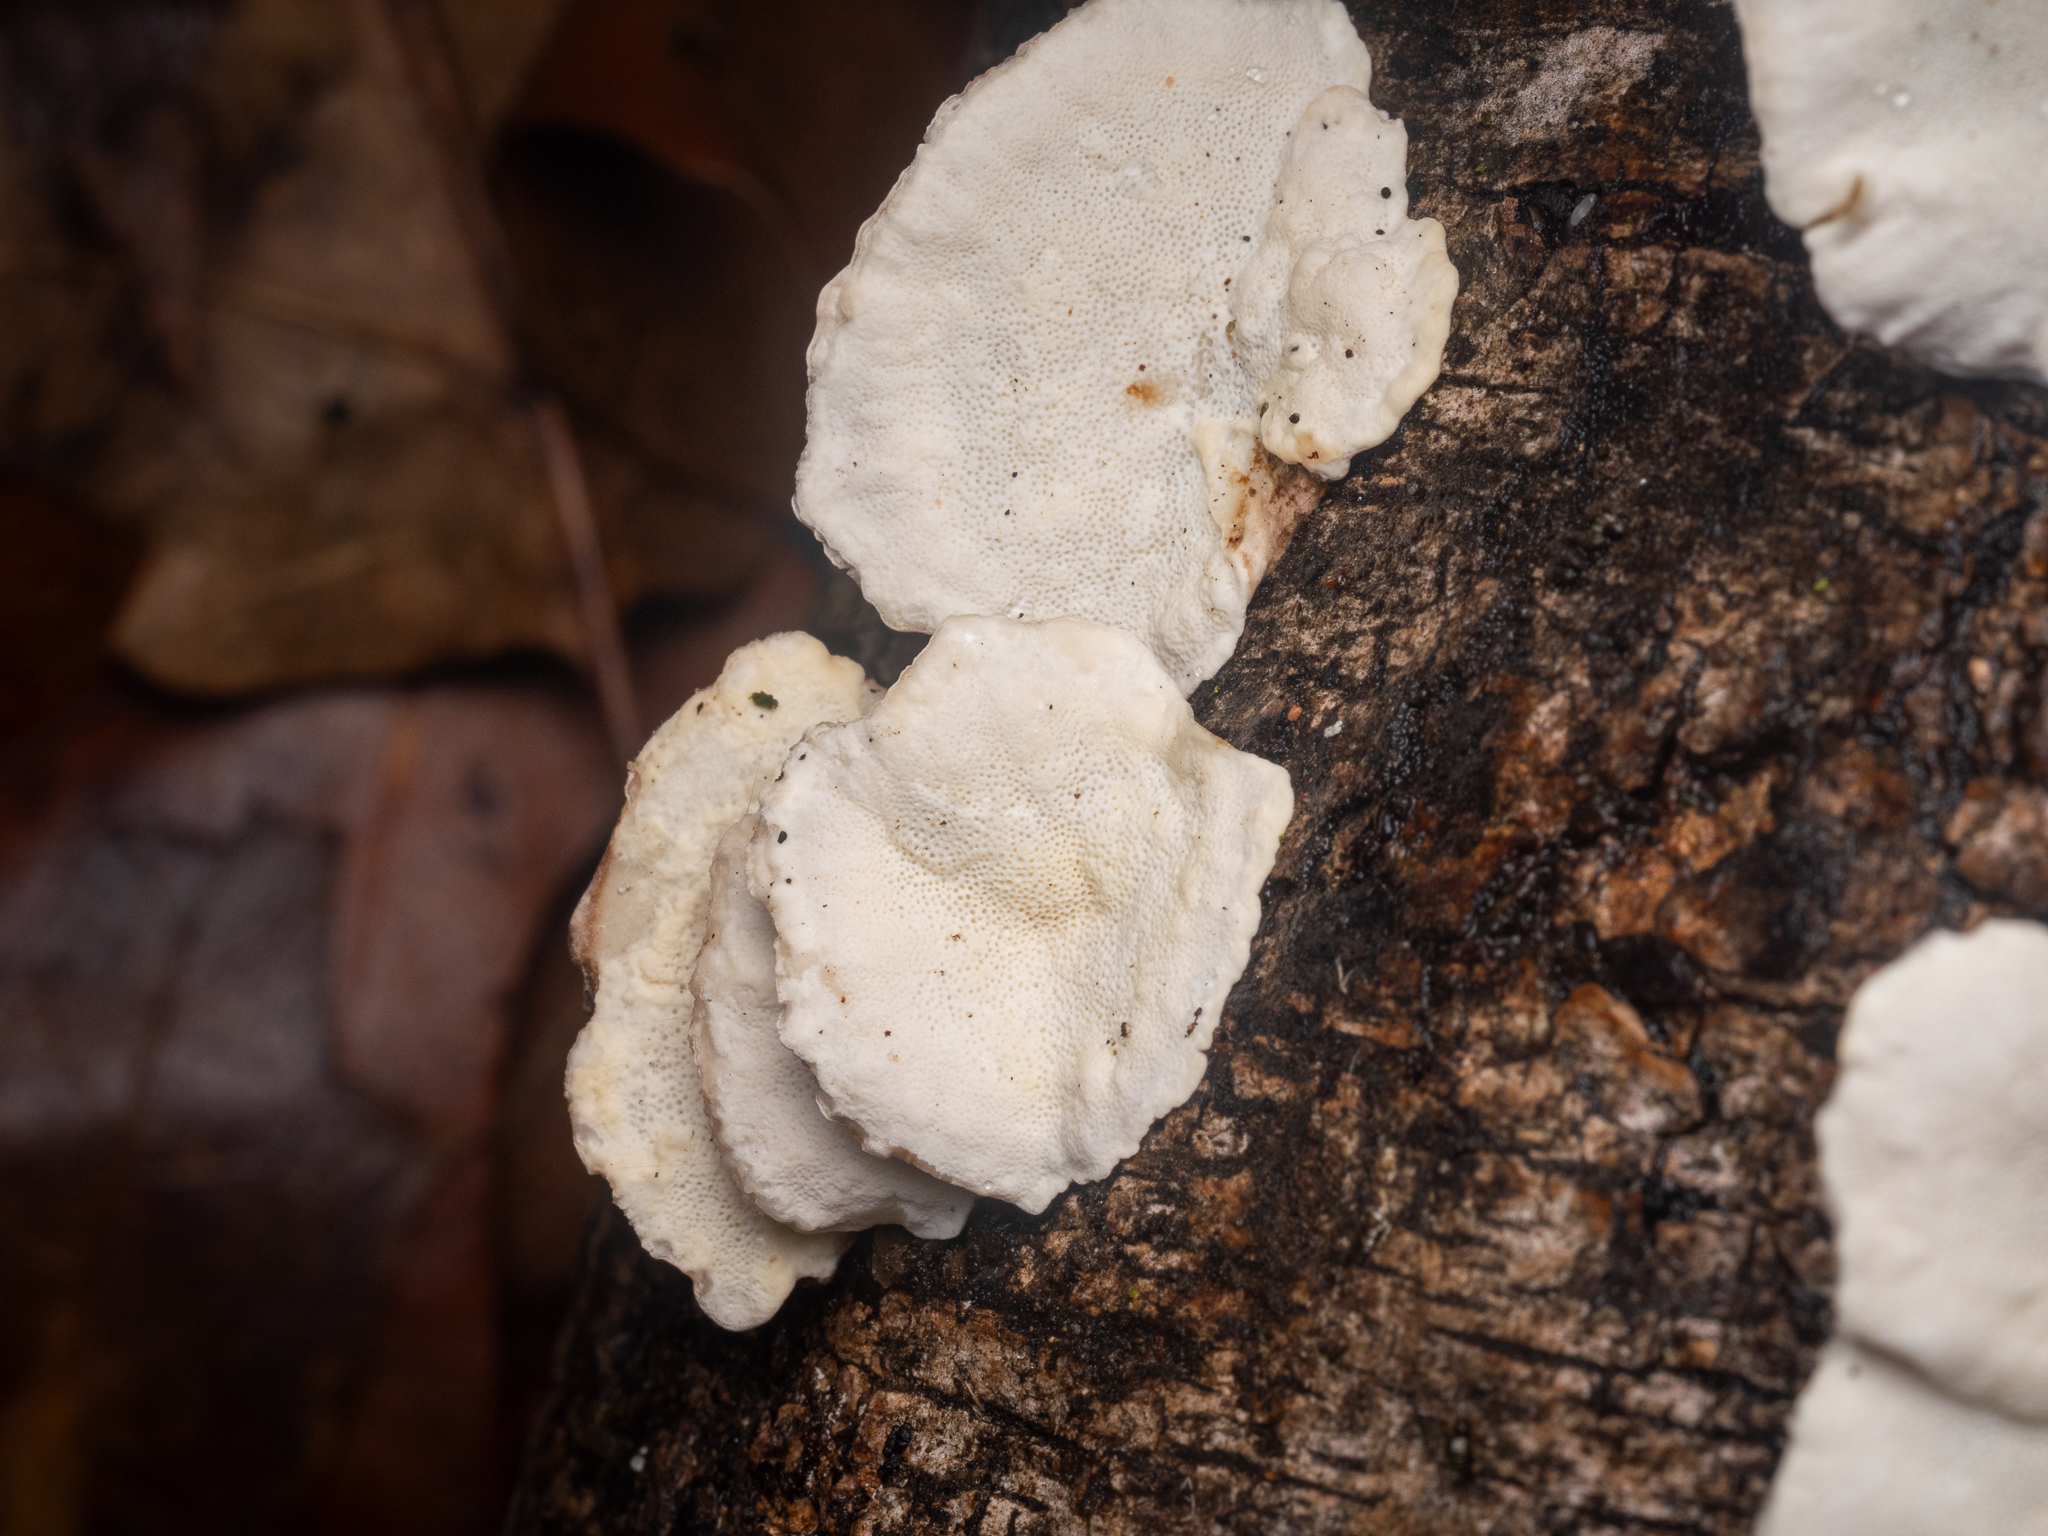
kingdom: Fungi
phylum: Basidiomycota
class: Agaricomycetes
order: Polyporales
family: Polyporaceae
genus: Trametes
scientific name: Trametes versicolor
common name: Turkeytail
